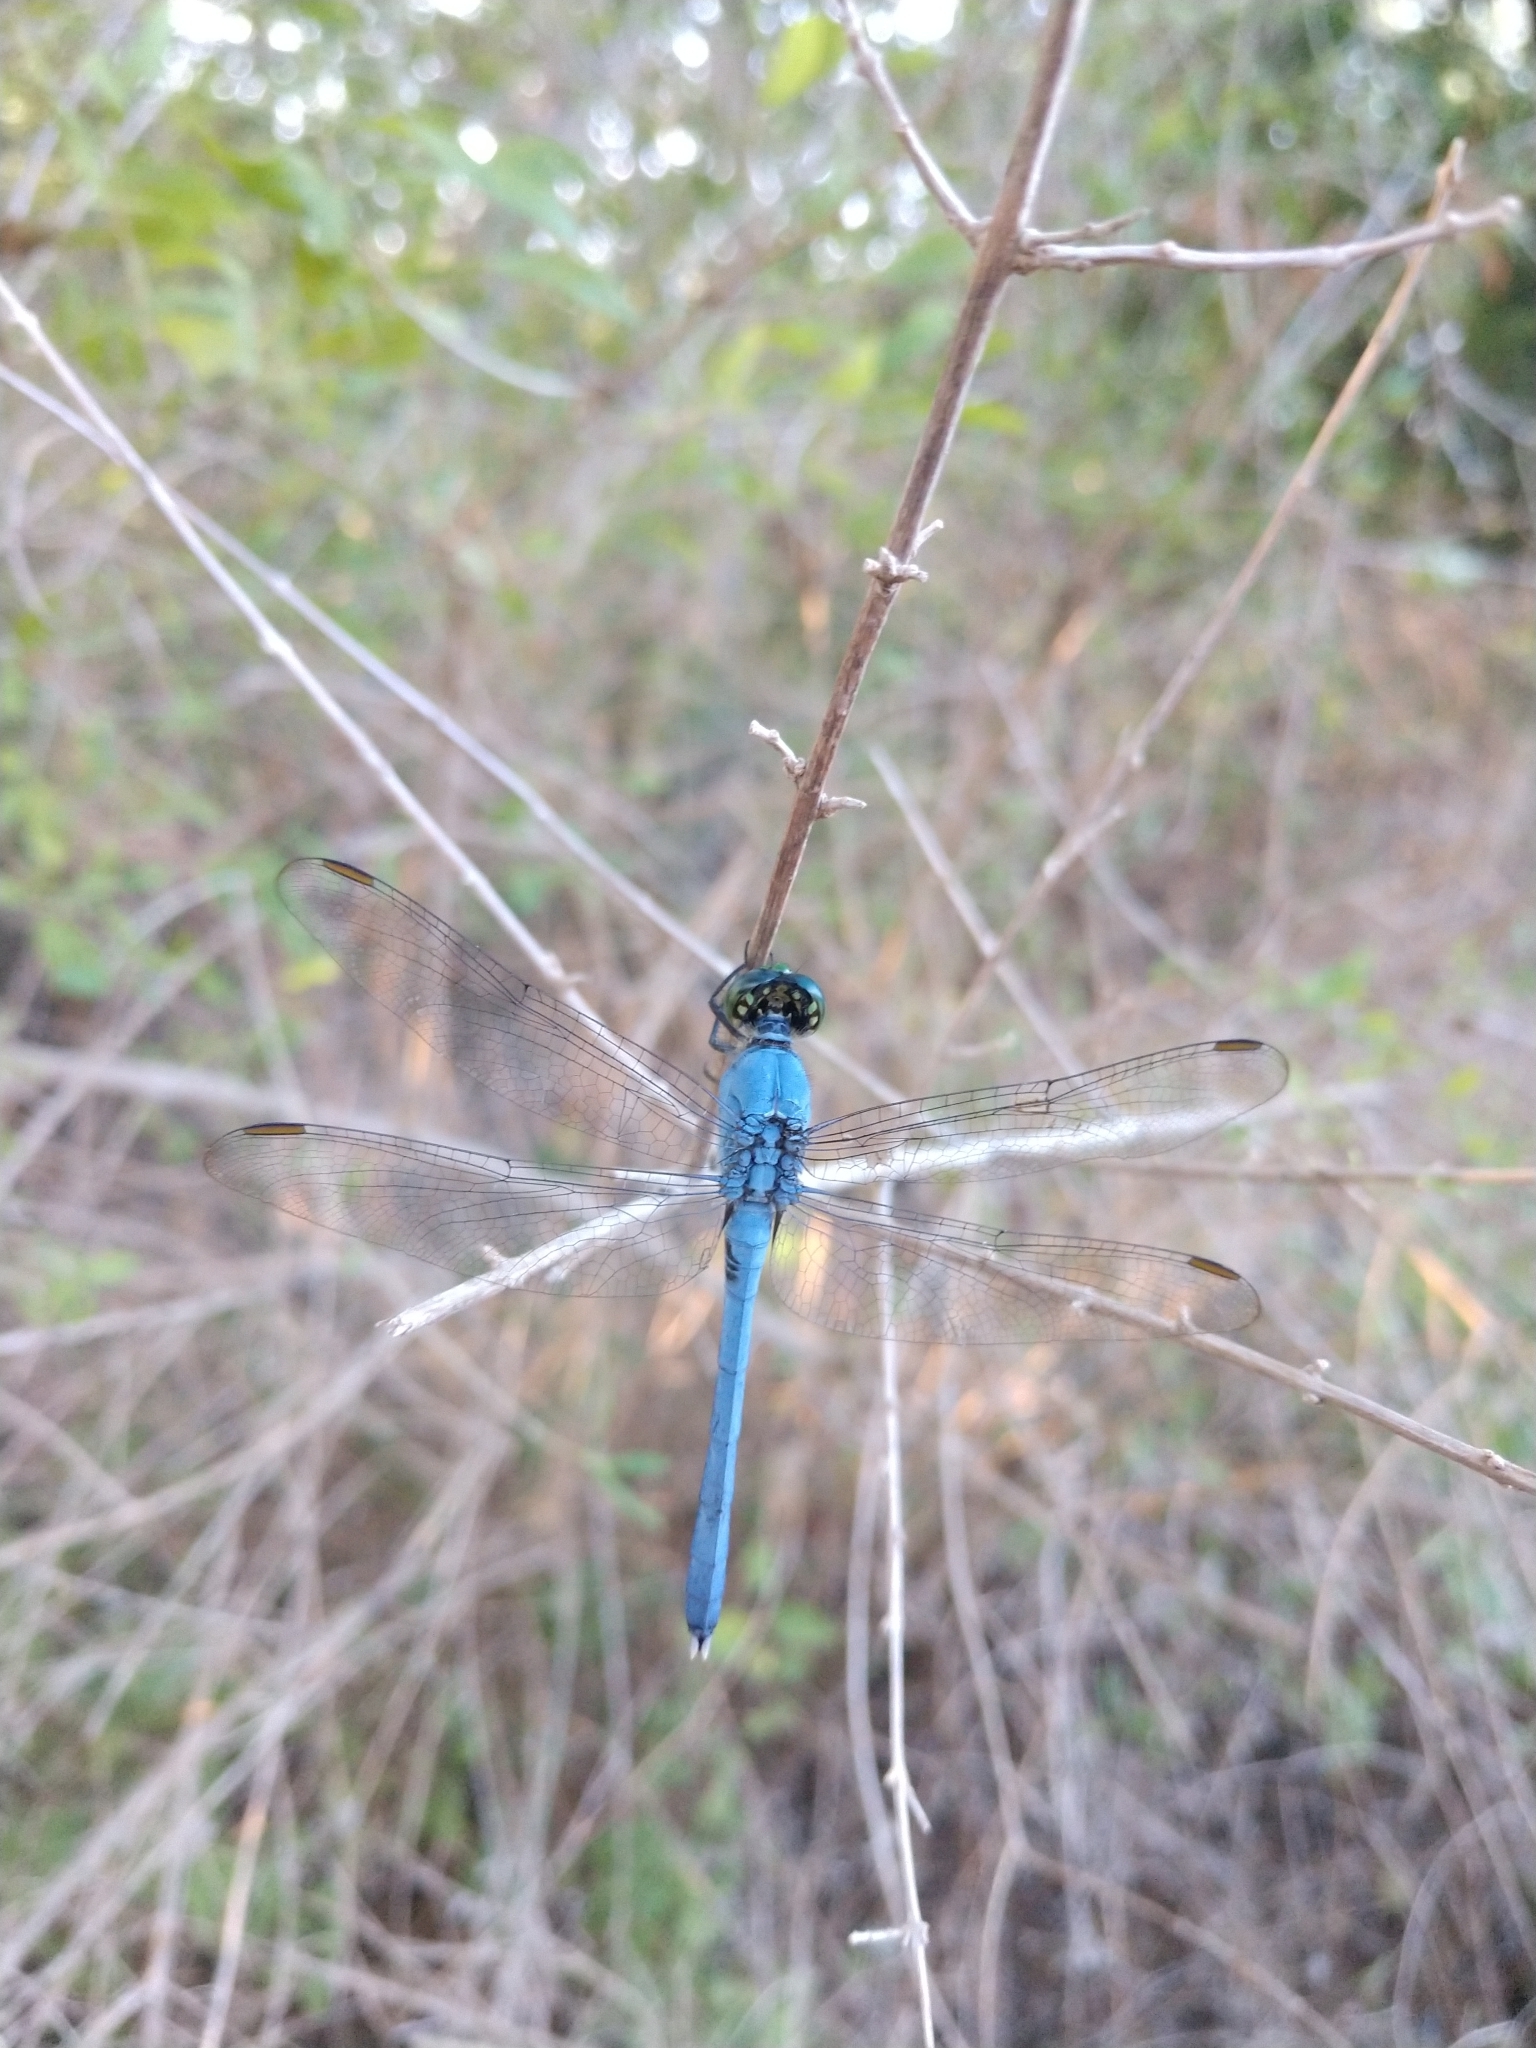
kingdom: Animalia
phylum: Arthropoda
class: Insecta
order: Odonata
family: Libellulidae
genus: Erythemis
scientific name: Erythemis simplicicollis
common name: Eastern pondhawk
